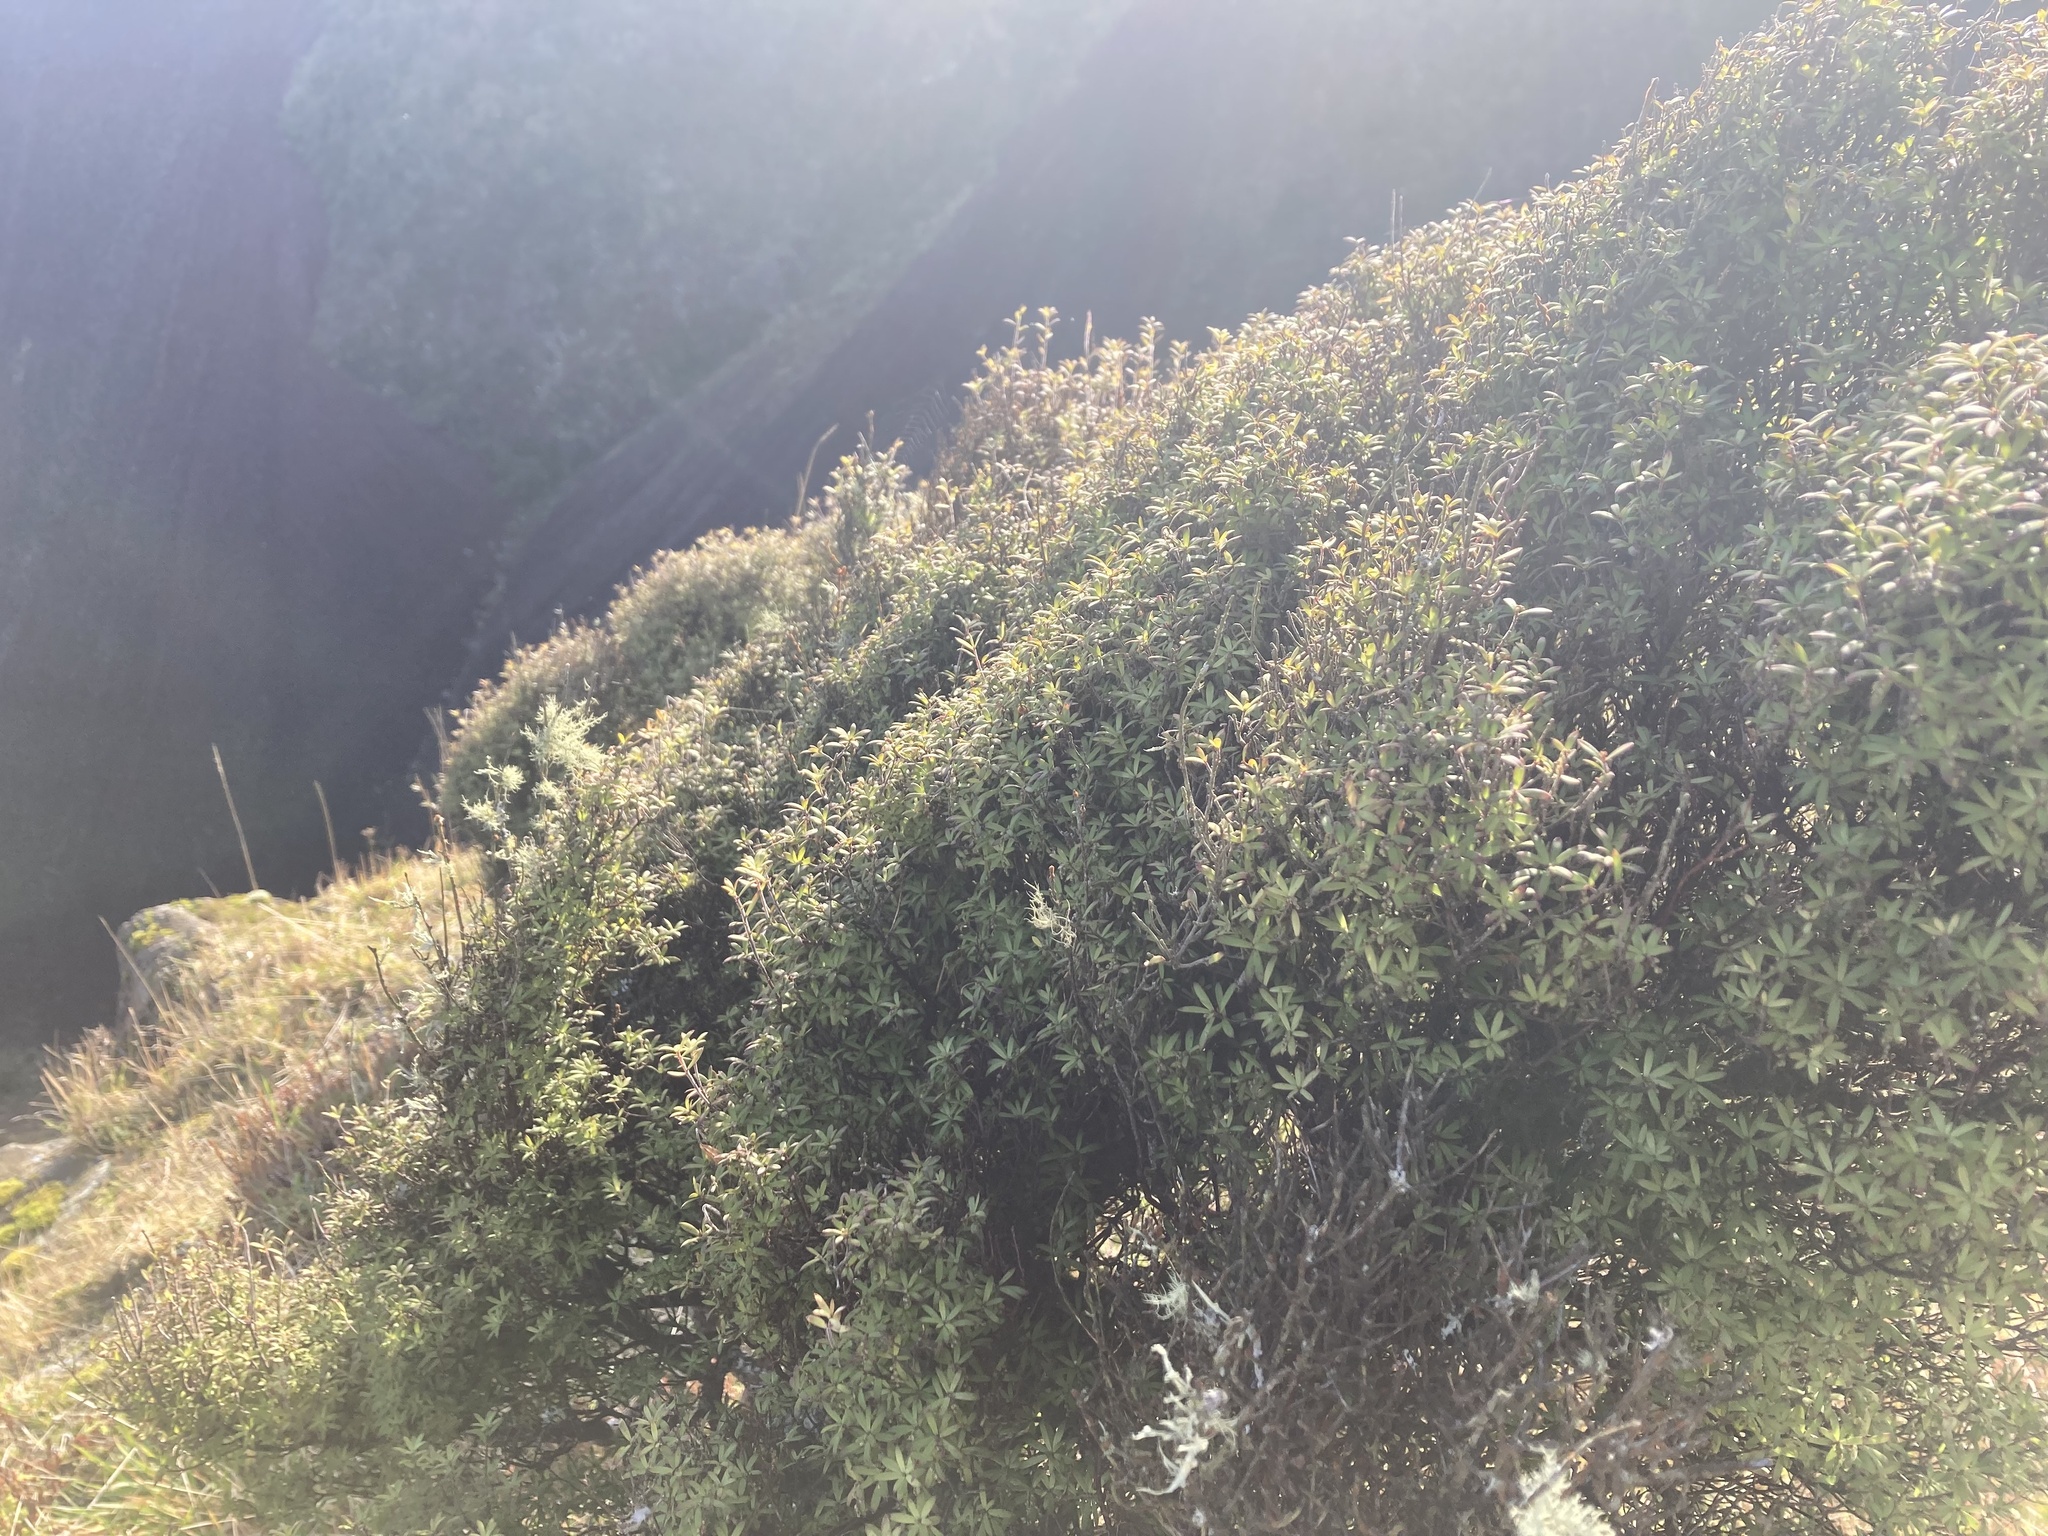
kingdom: Plantae
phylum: Tracheophyta
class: Magnoliopsida
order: Ericales
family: Ericaceae
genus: Leucopogon
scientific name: Leucopogon fasciculatus
